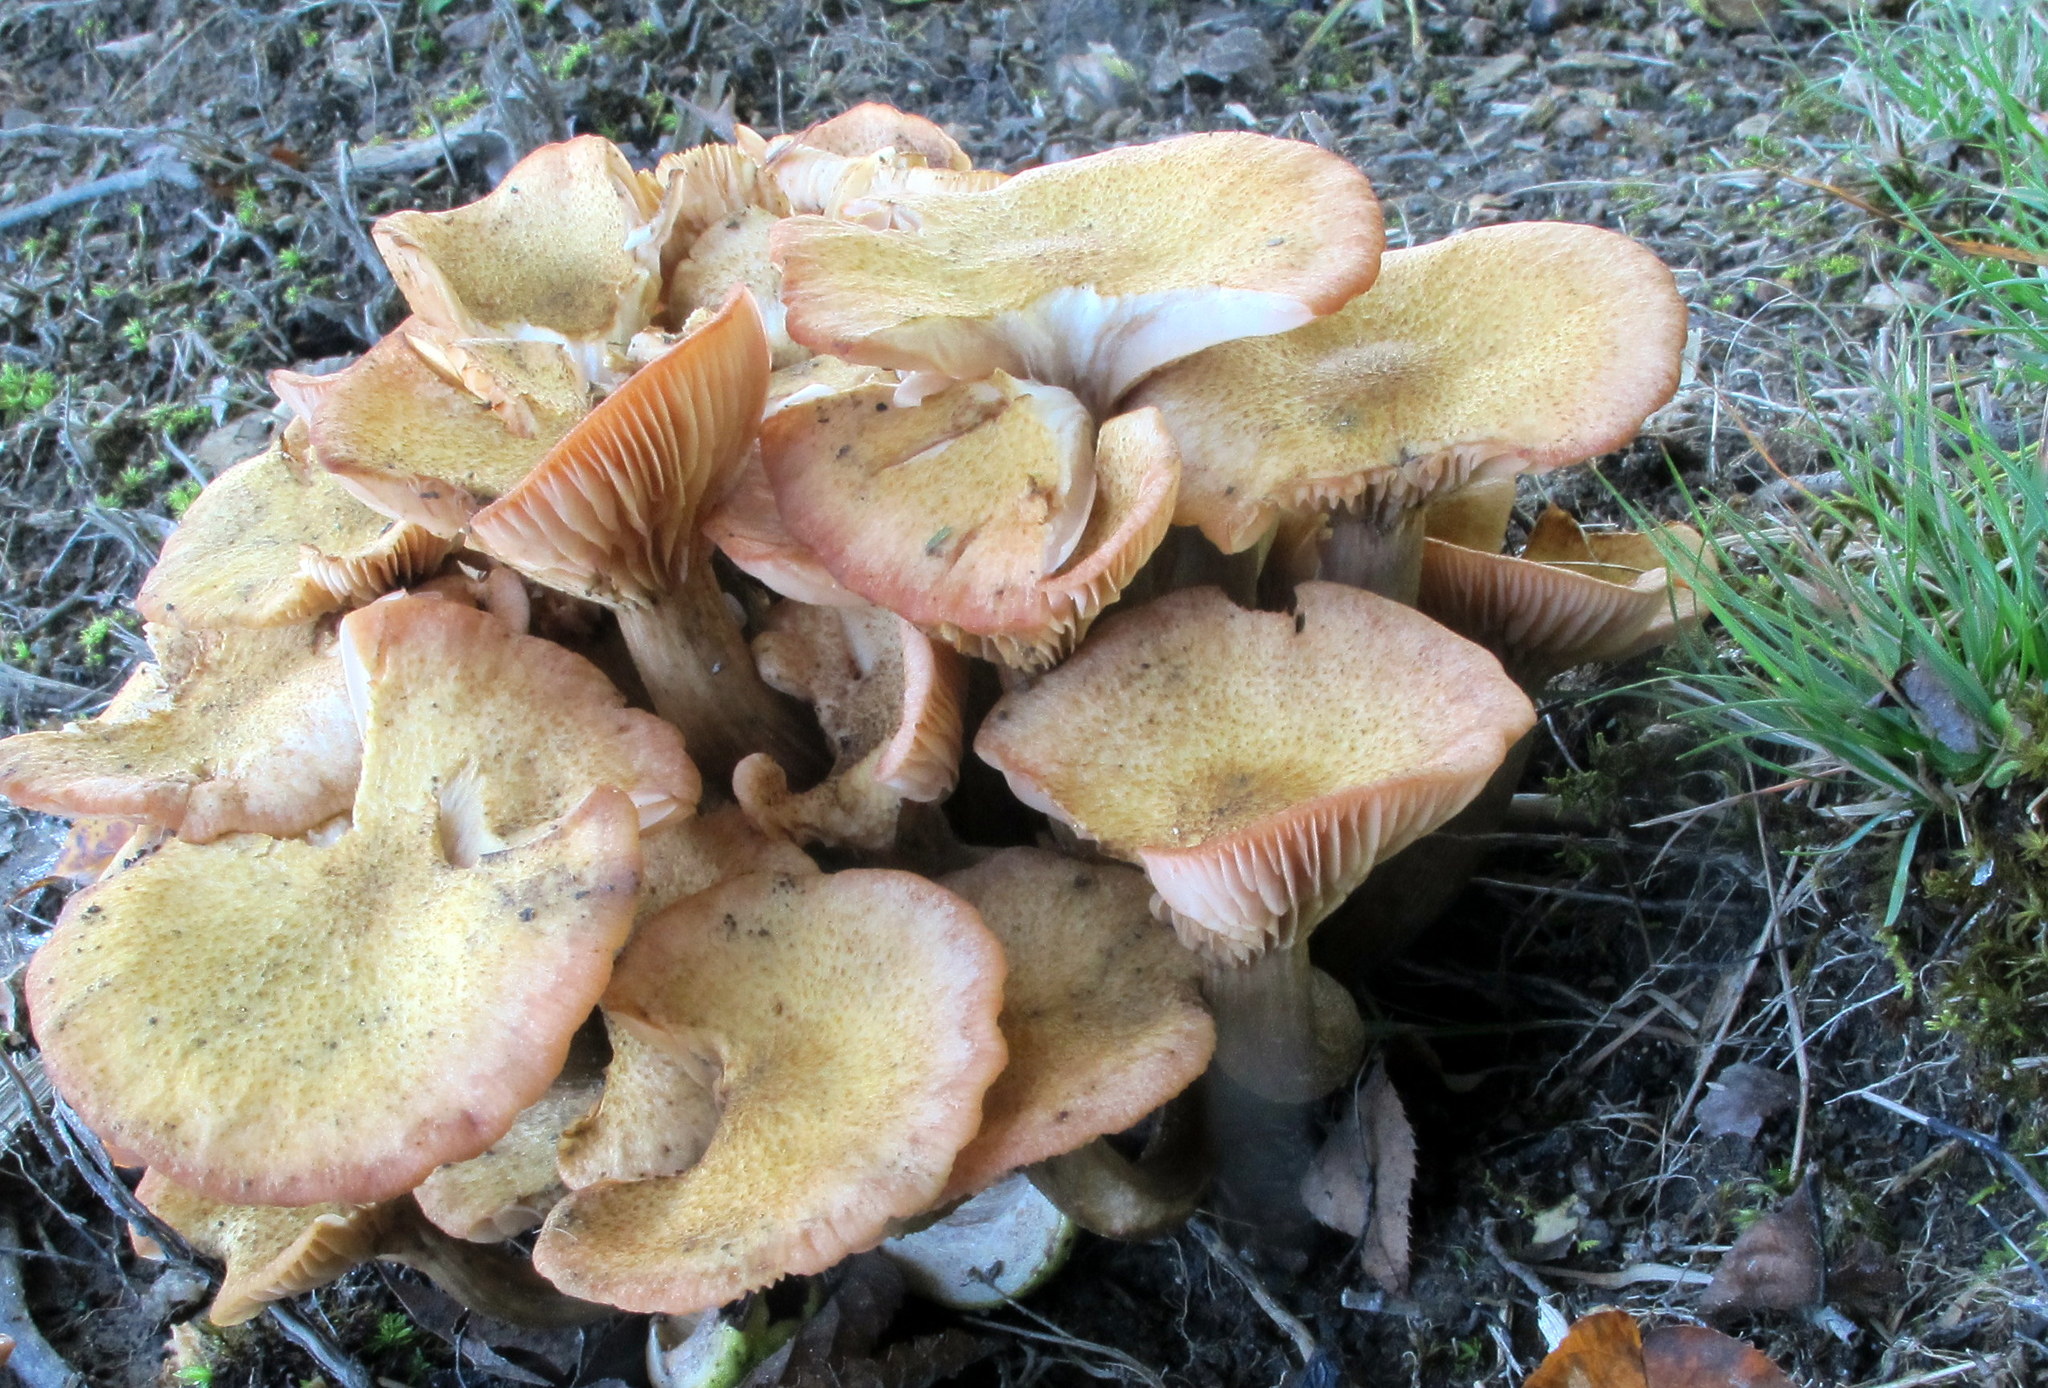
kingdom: Fungi
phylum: Basidiomycota
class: Agaricomycetes
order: Agaricales
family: Physalacriaceae
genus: Desarmillaria
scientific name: Desarmillaria caespitosa
